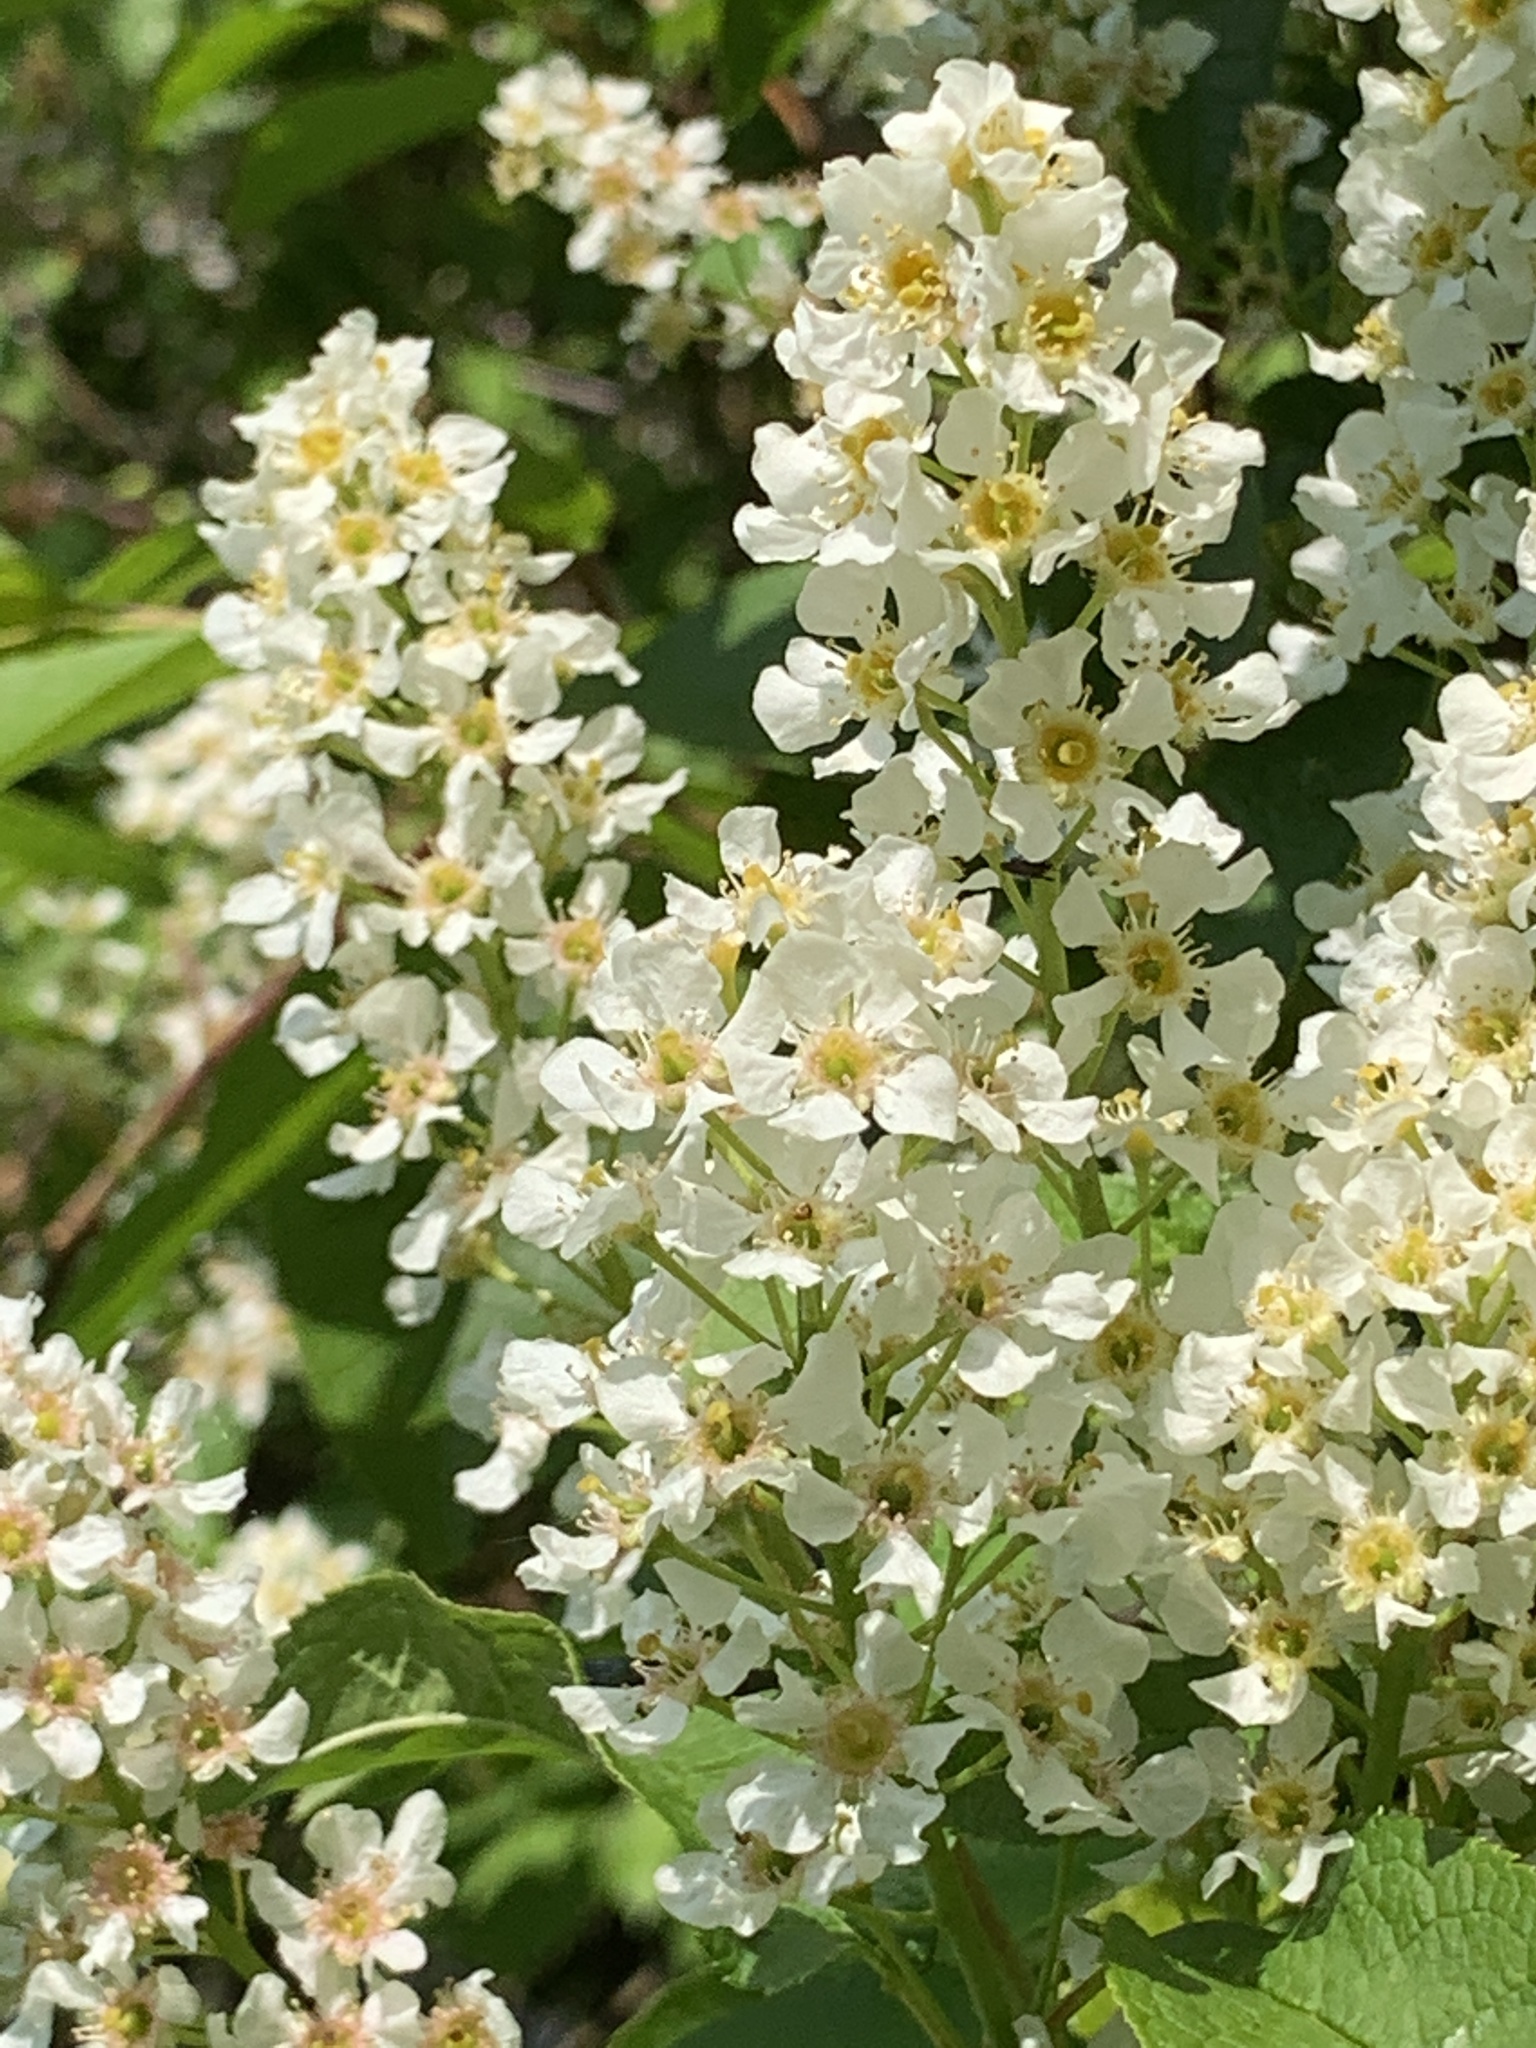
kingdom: Plantae
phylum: Tracheophyta
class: Magnoliopsida
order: Rosales
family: Rosaceae
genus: Prunus
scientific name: Prunus padus
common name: Bird cherry
